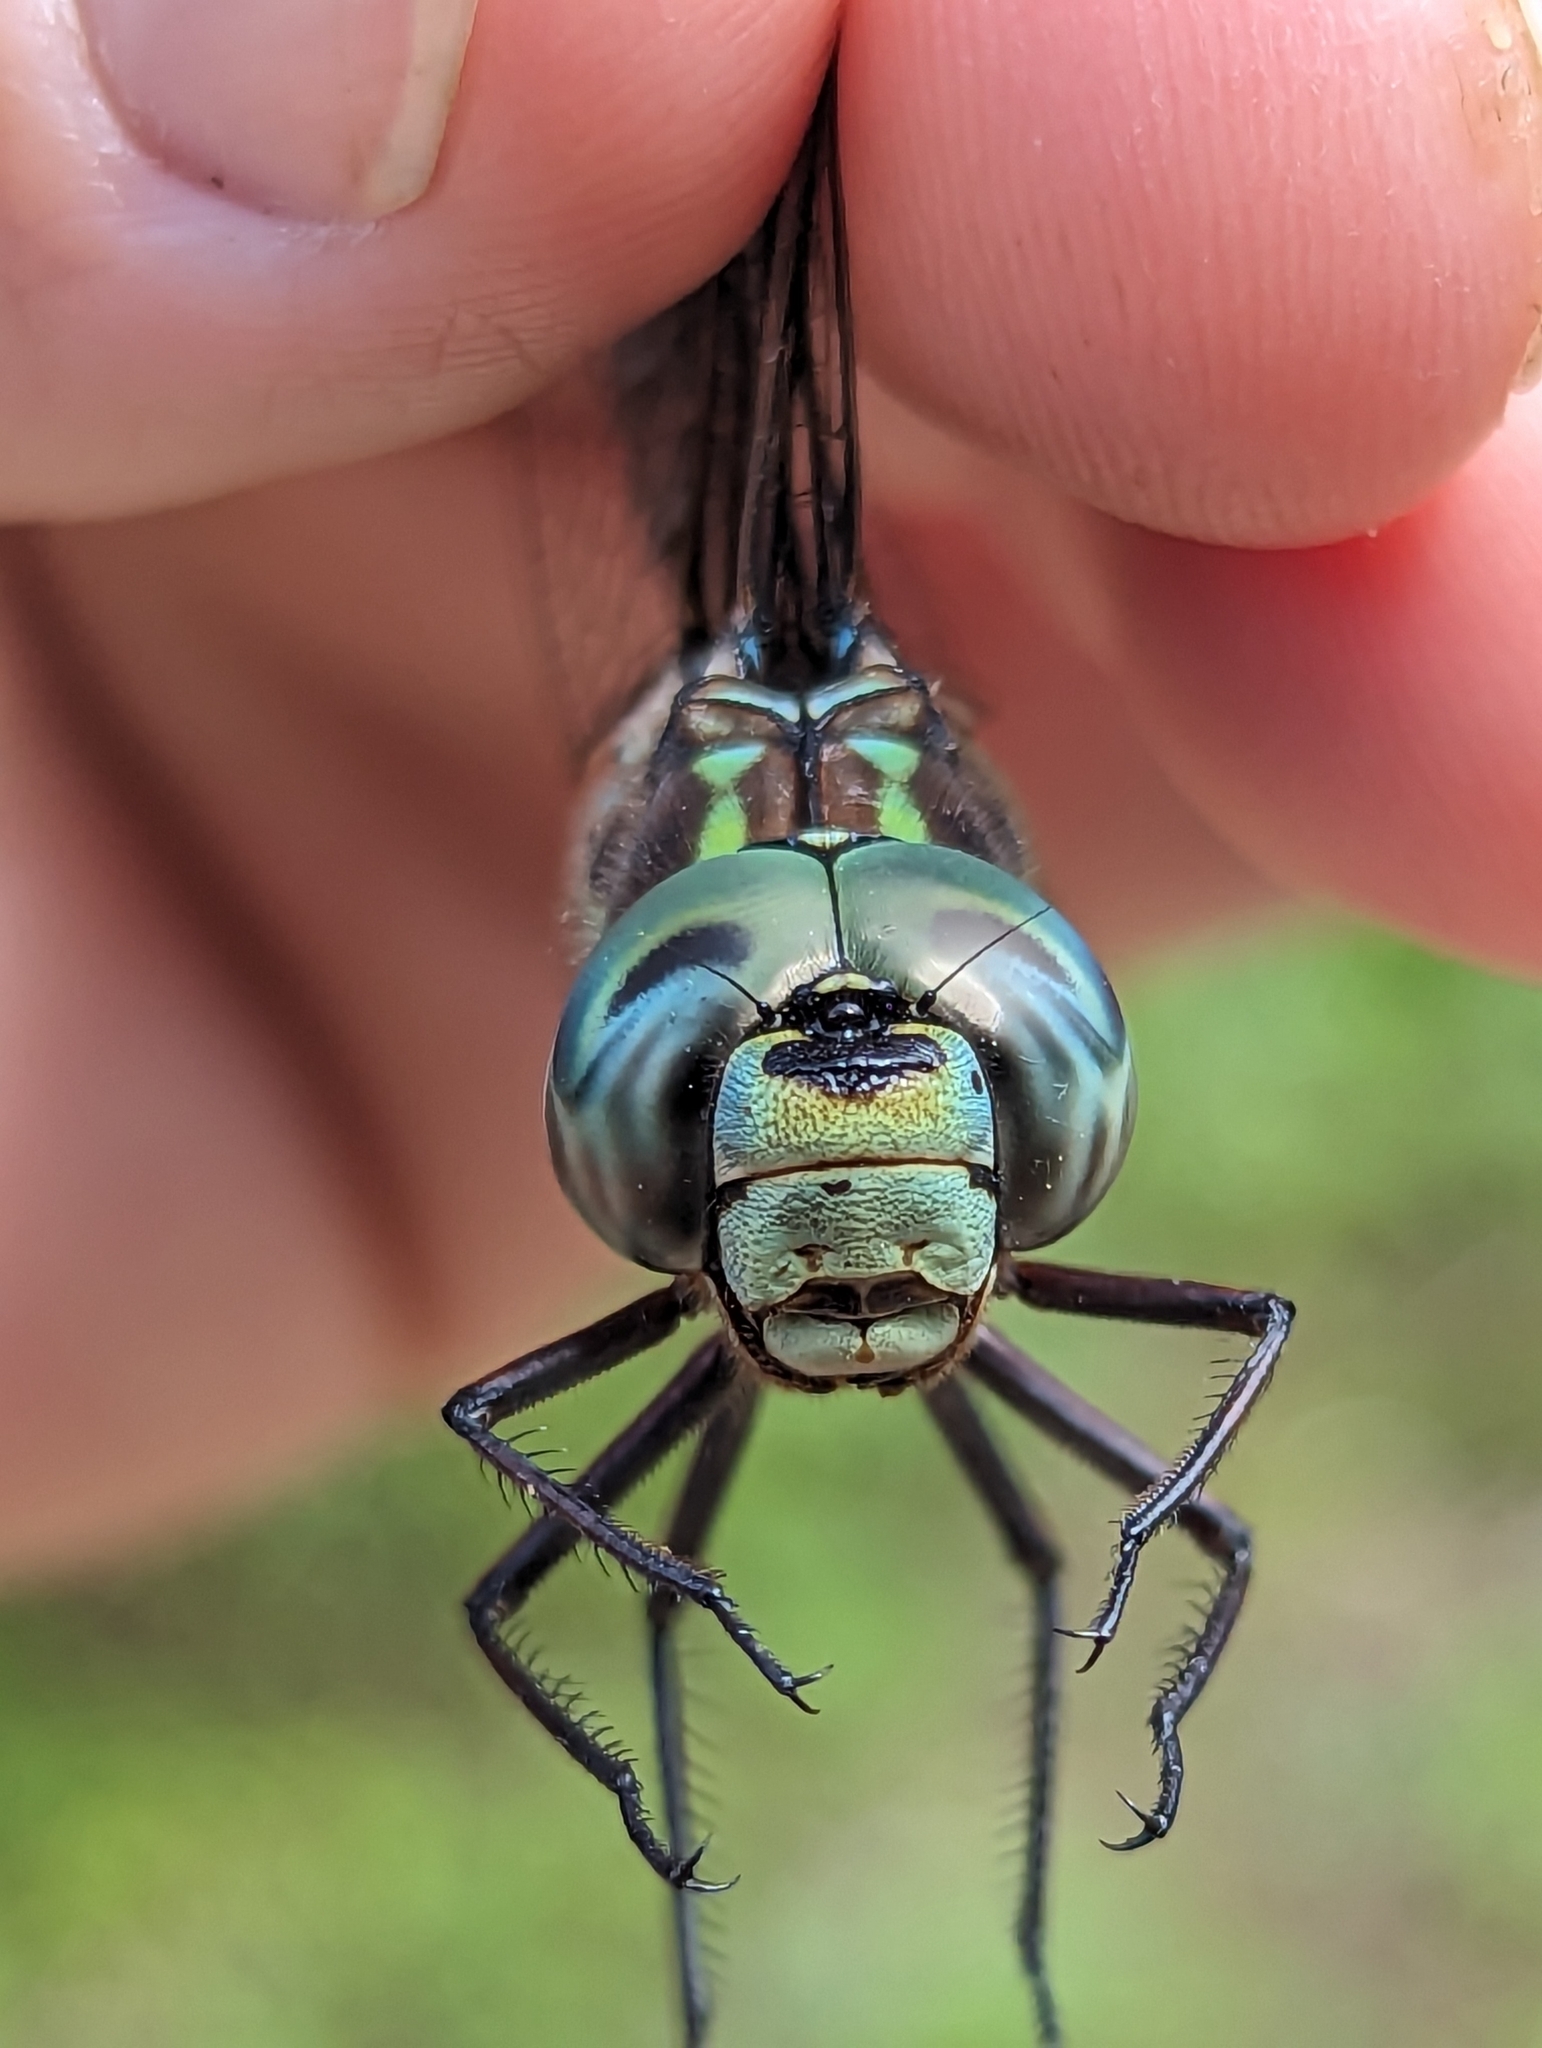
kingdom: Animalia
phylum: Arthropoda
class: Insecta
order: Odonata
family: Aeshnidae
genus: Aeshna
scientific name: Aeshna canadensis
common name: Canada darner
